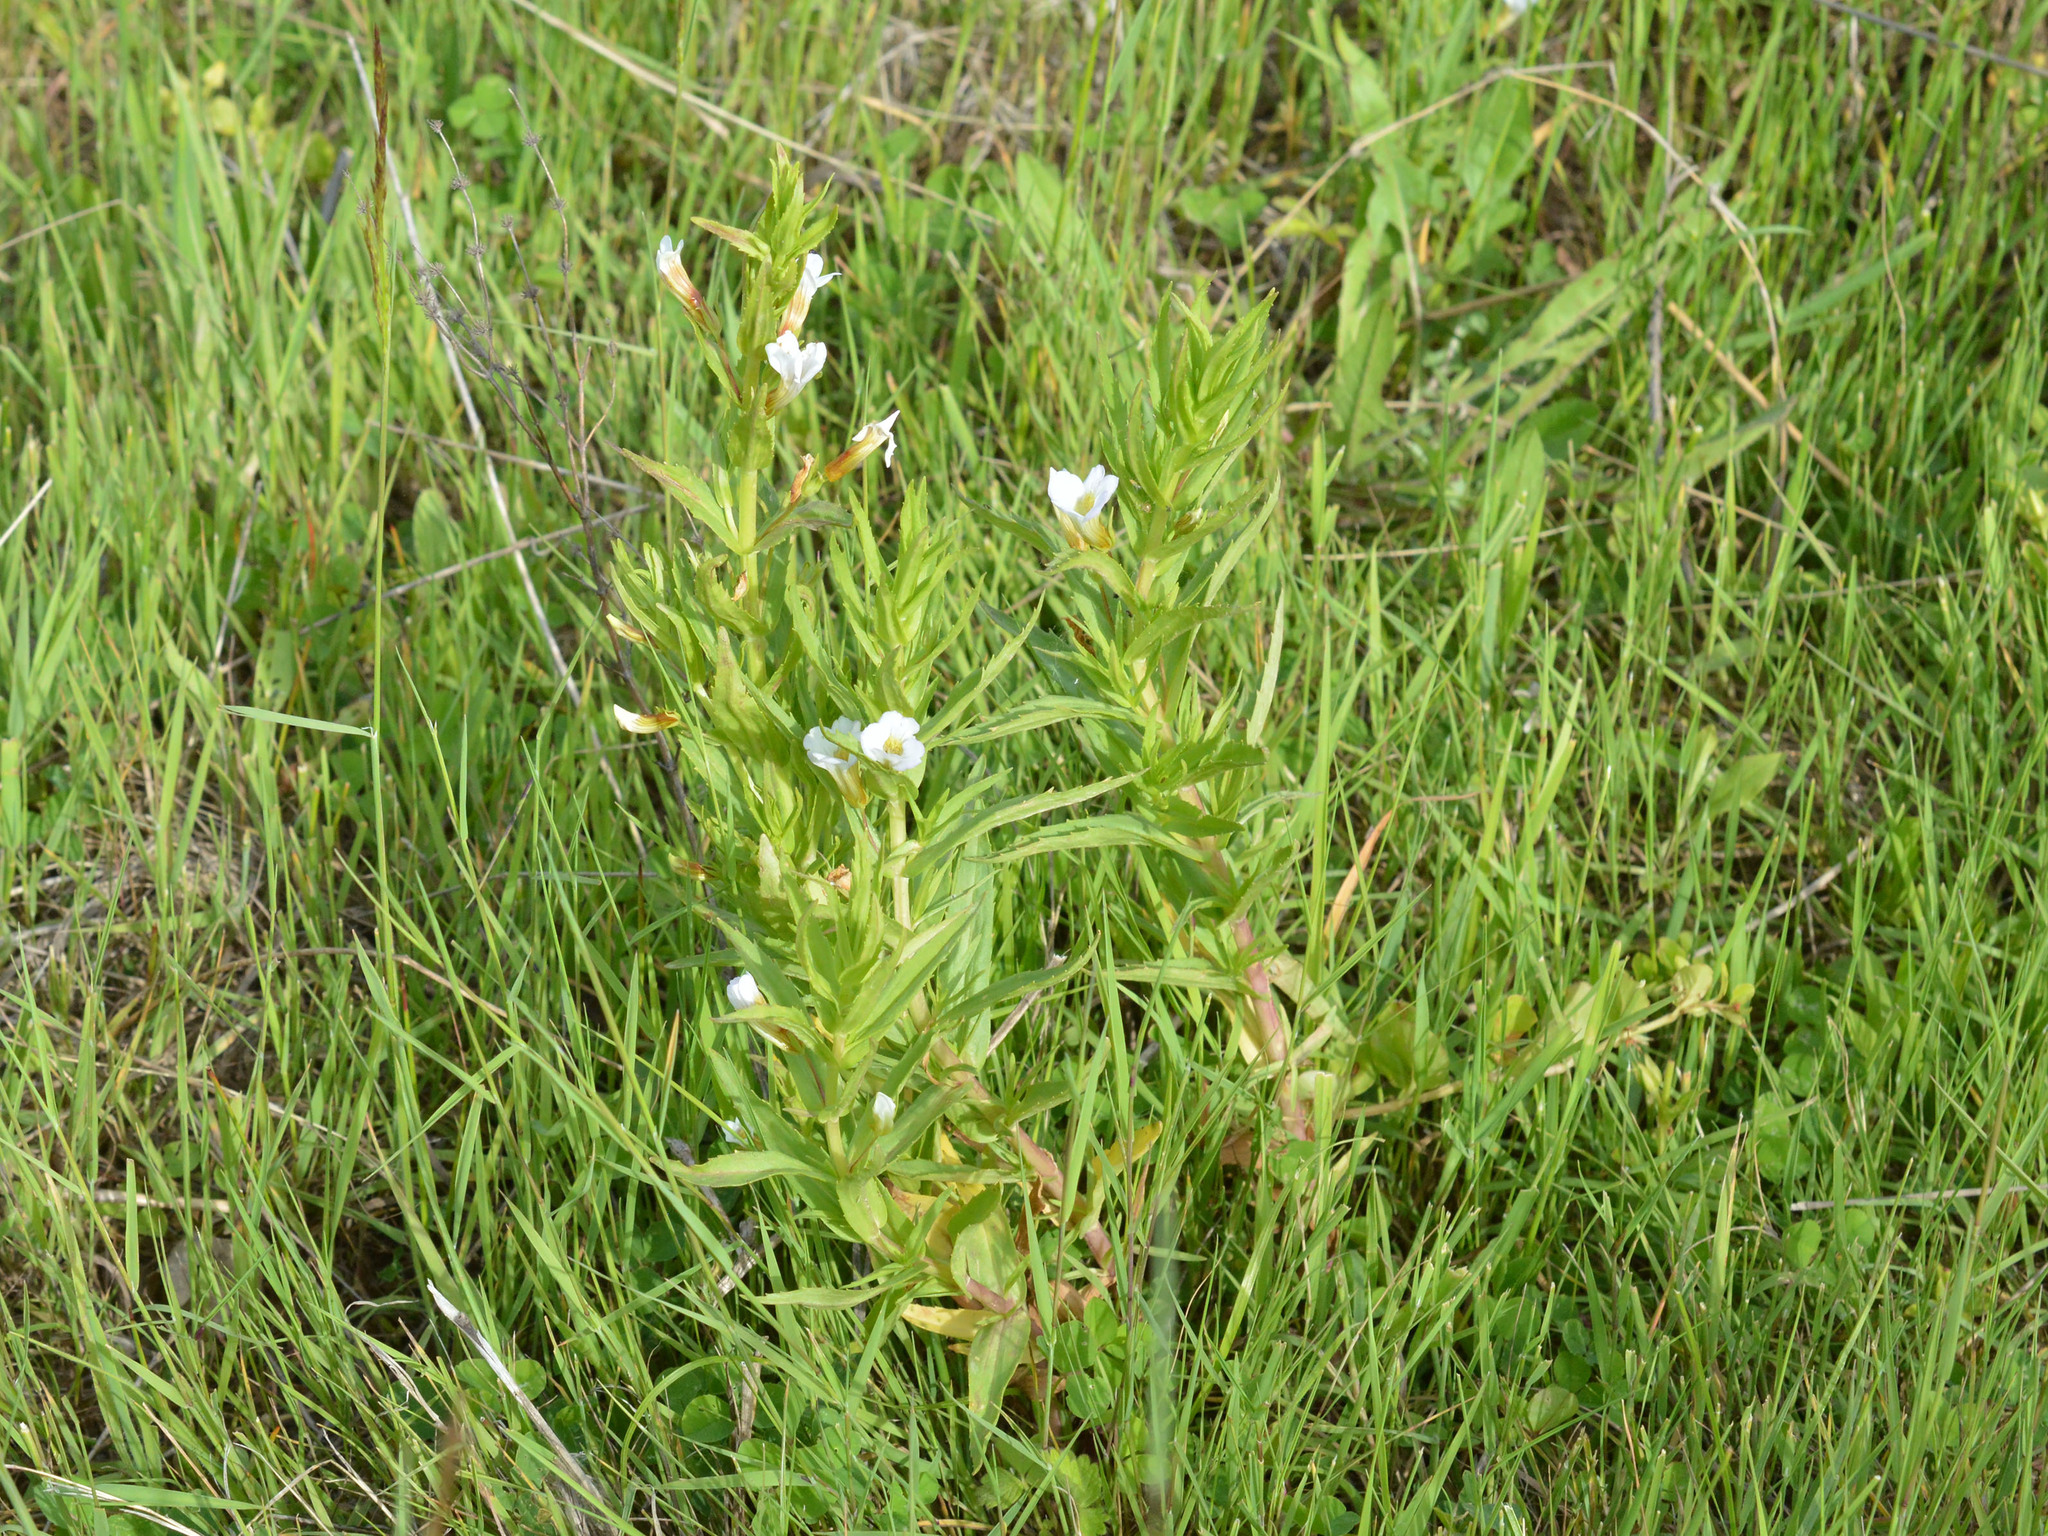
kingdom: Plantae
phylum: Tracheophyta
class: Magnoliopsida
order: Lamiales
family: Plantaginaceae
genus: Gratiola
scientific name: Gratiola officinalis
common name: Gratiola
